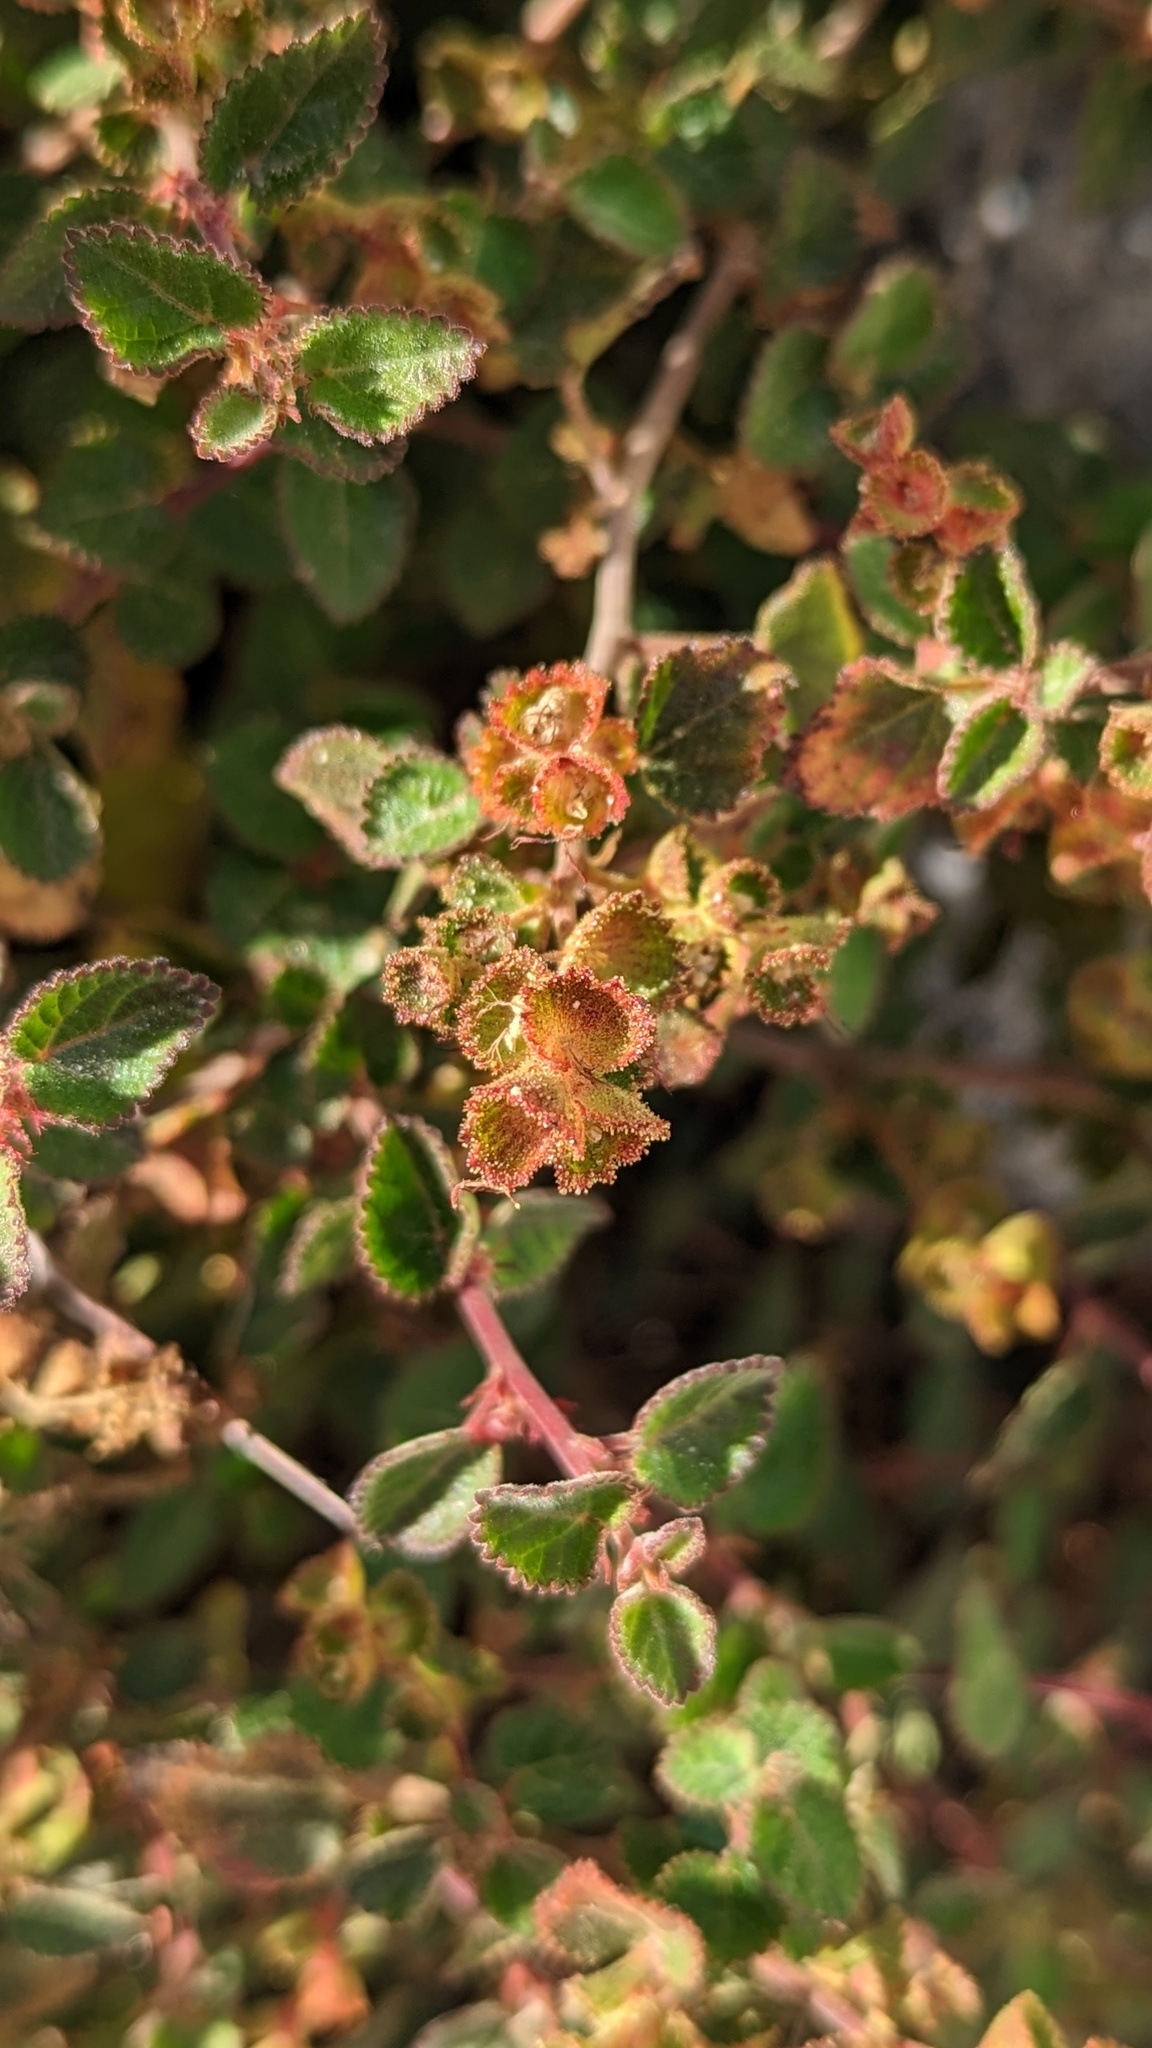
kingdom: Plantae
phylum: Tracheophyta
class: Magnoliopsida
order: Malpighiales
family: Euphorbiaceae
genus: Acalypha
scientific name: Acalypha californica
